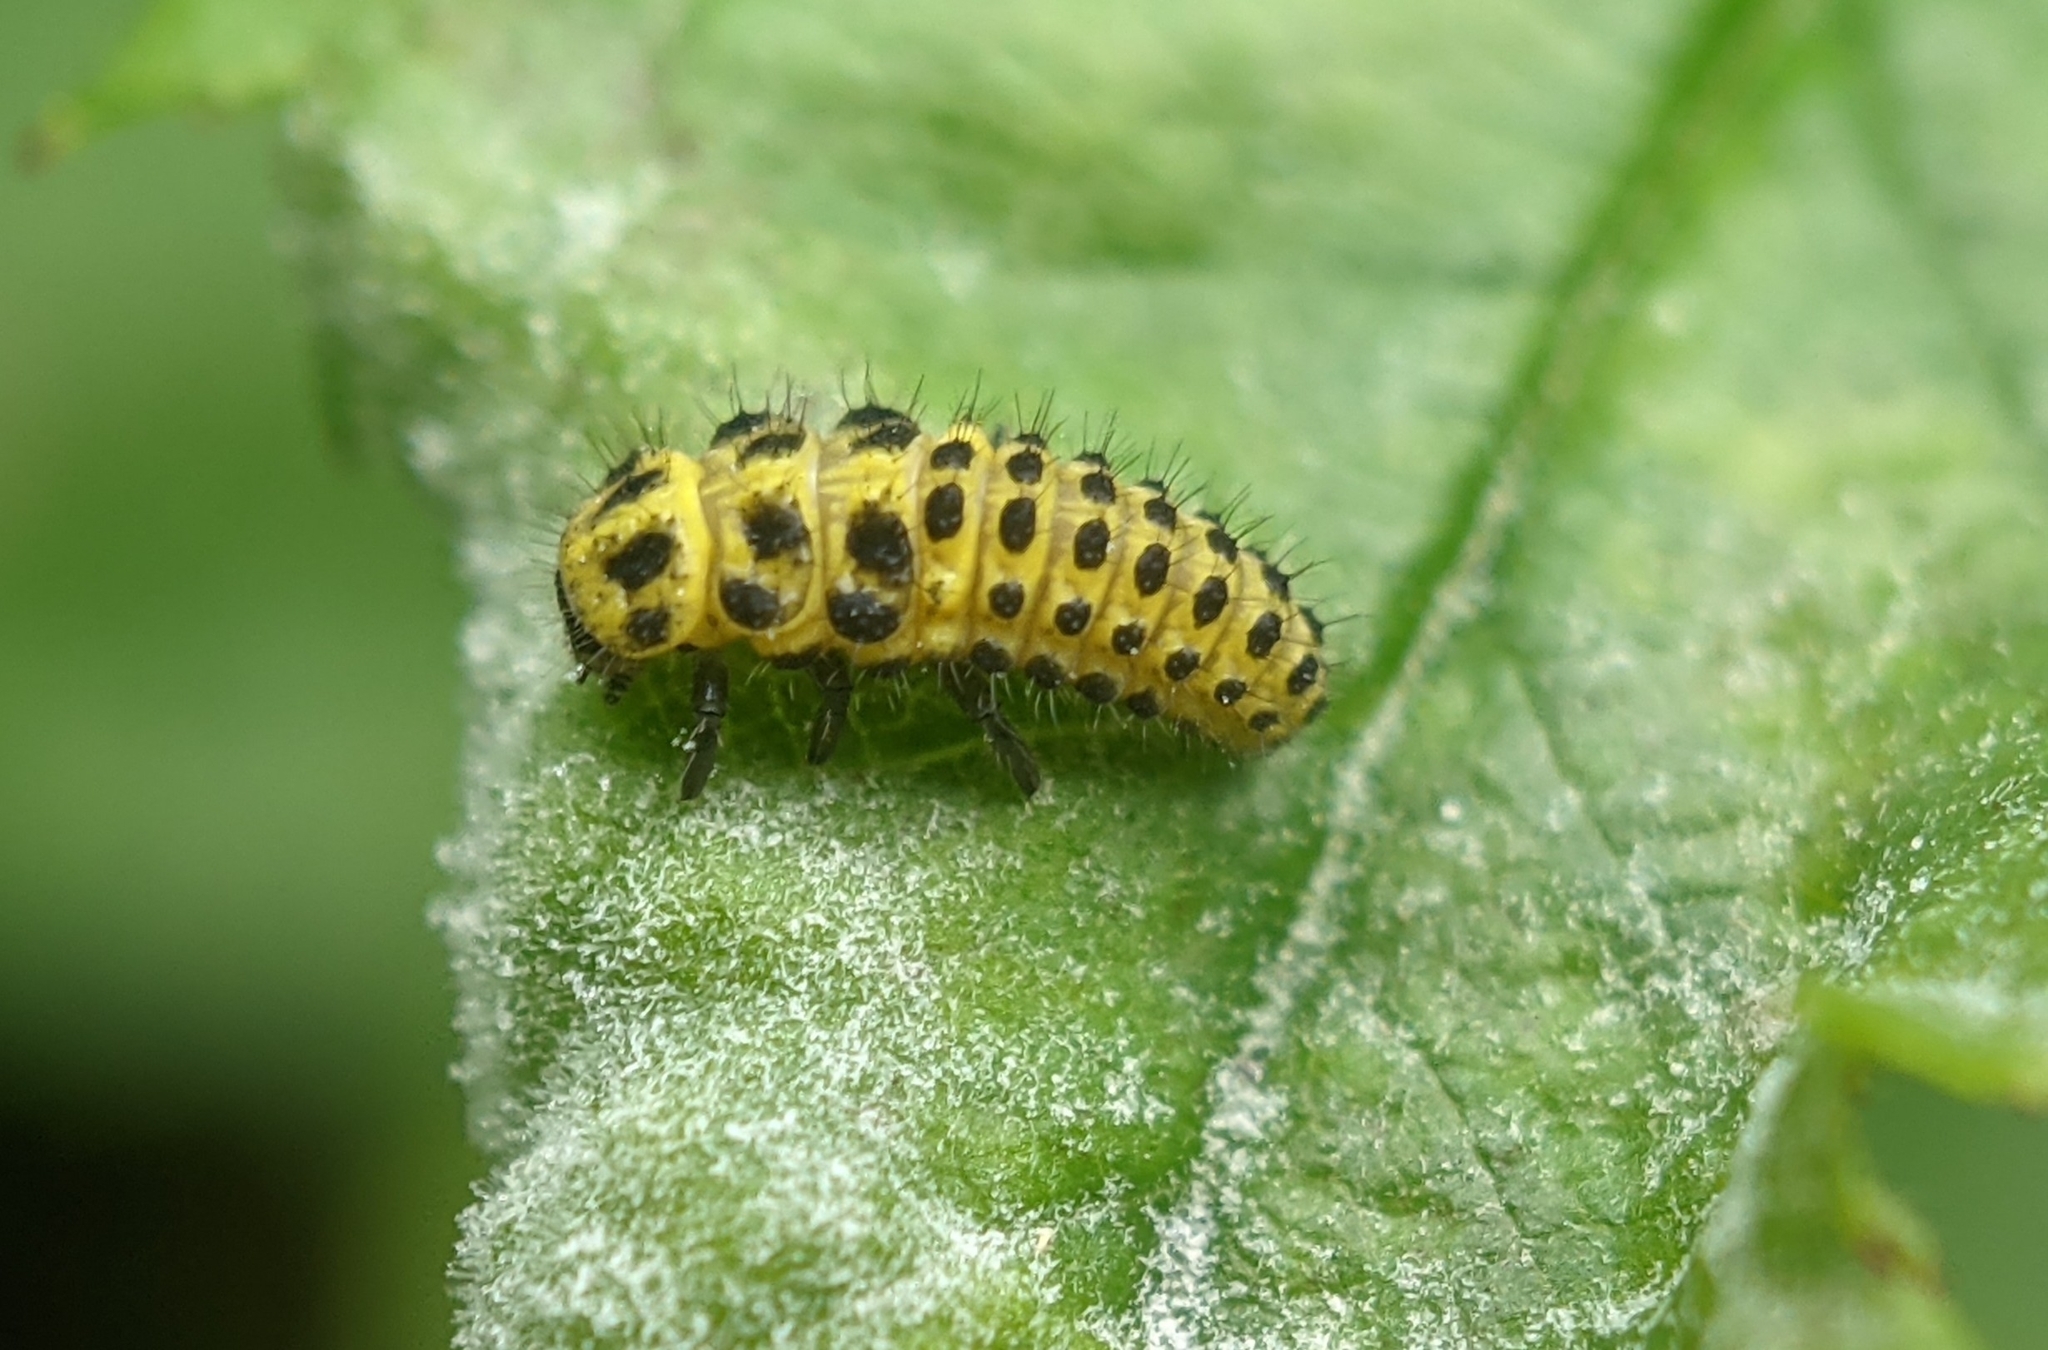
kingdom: Animalia
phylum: Arthropoda
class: Insecta
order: Coleoptera
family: Coccinellidae
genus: Psyllobora
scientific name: Psyllobora vigintiduopunctata
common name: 22-spot ladybird
